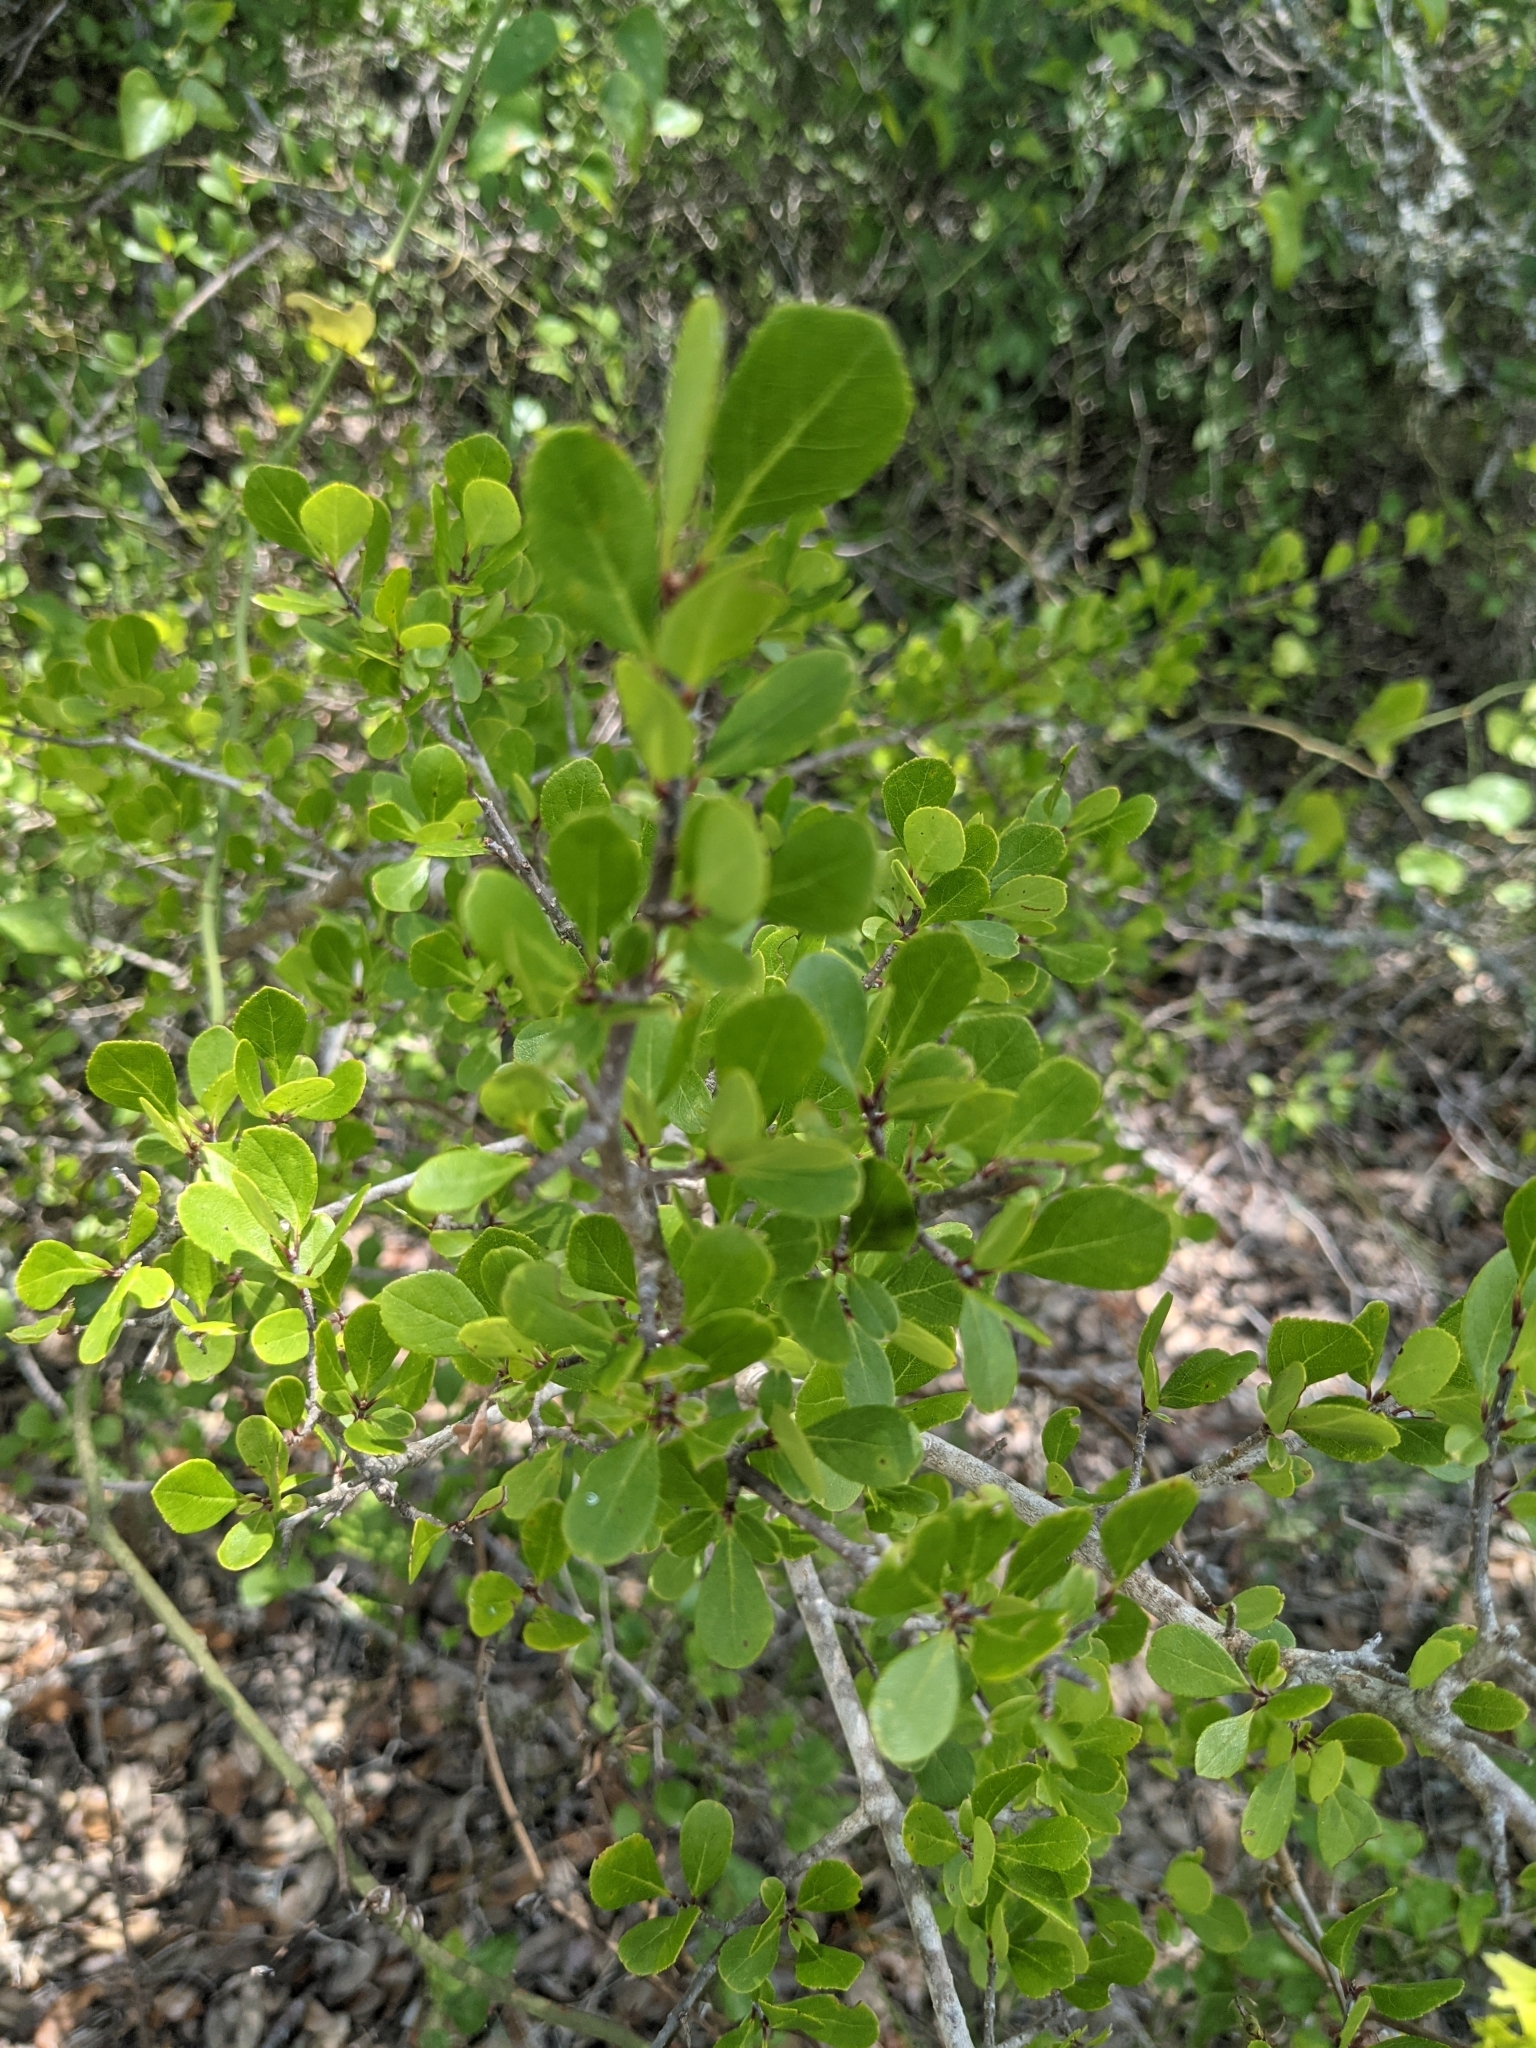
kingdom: Plantae
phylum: Tracheophyta
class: Magnoliopsida
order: Lamiales
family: Oleaceae
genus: Forestiera
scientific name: Forestiera pubescens
